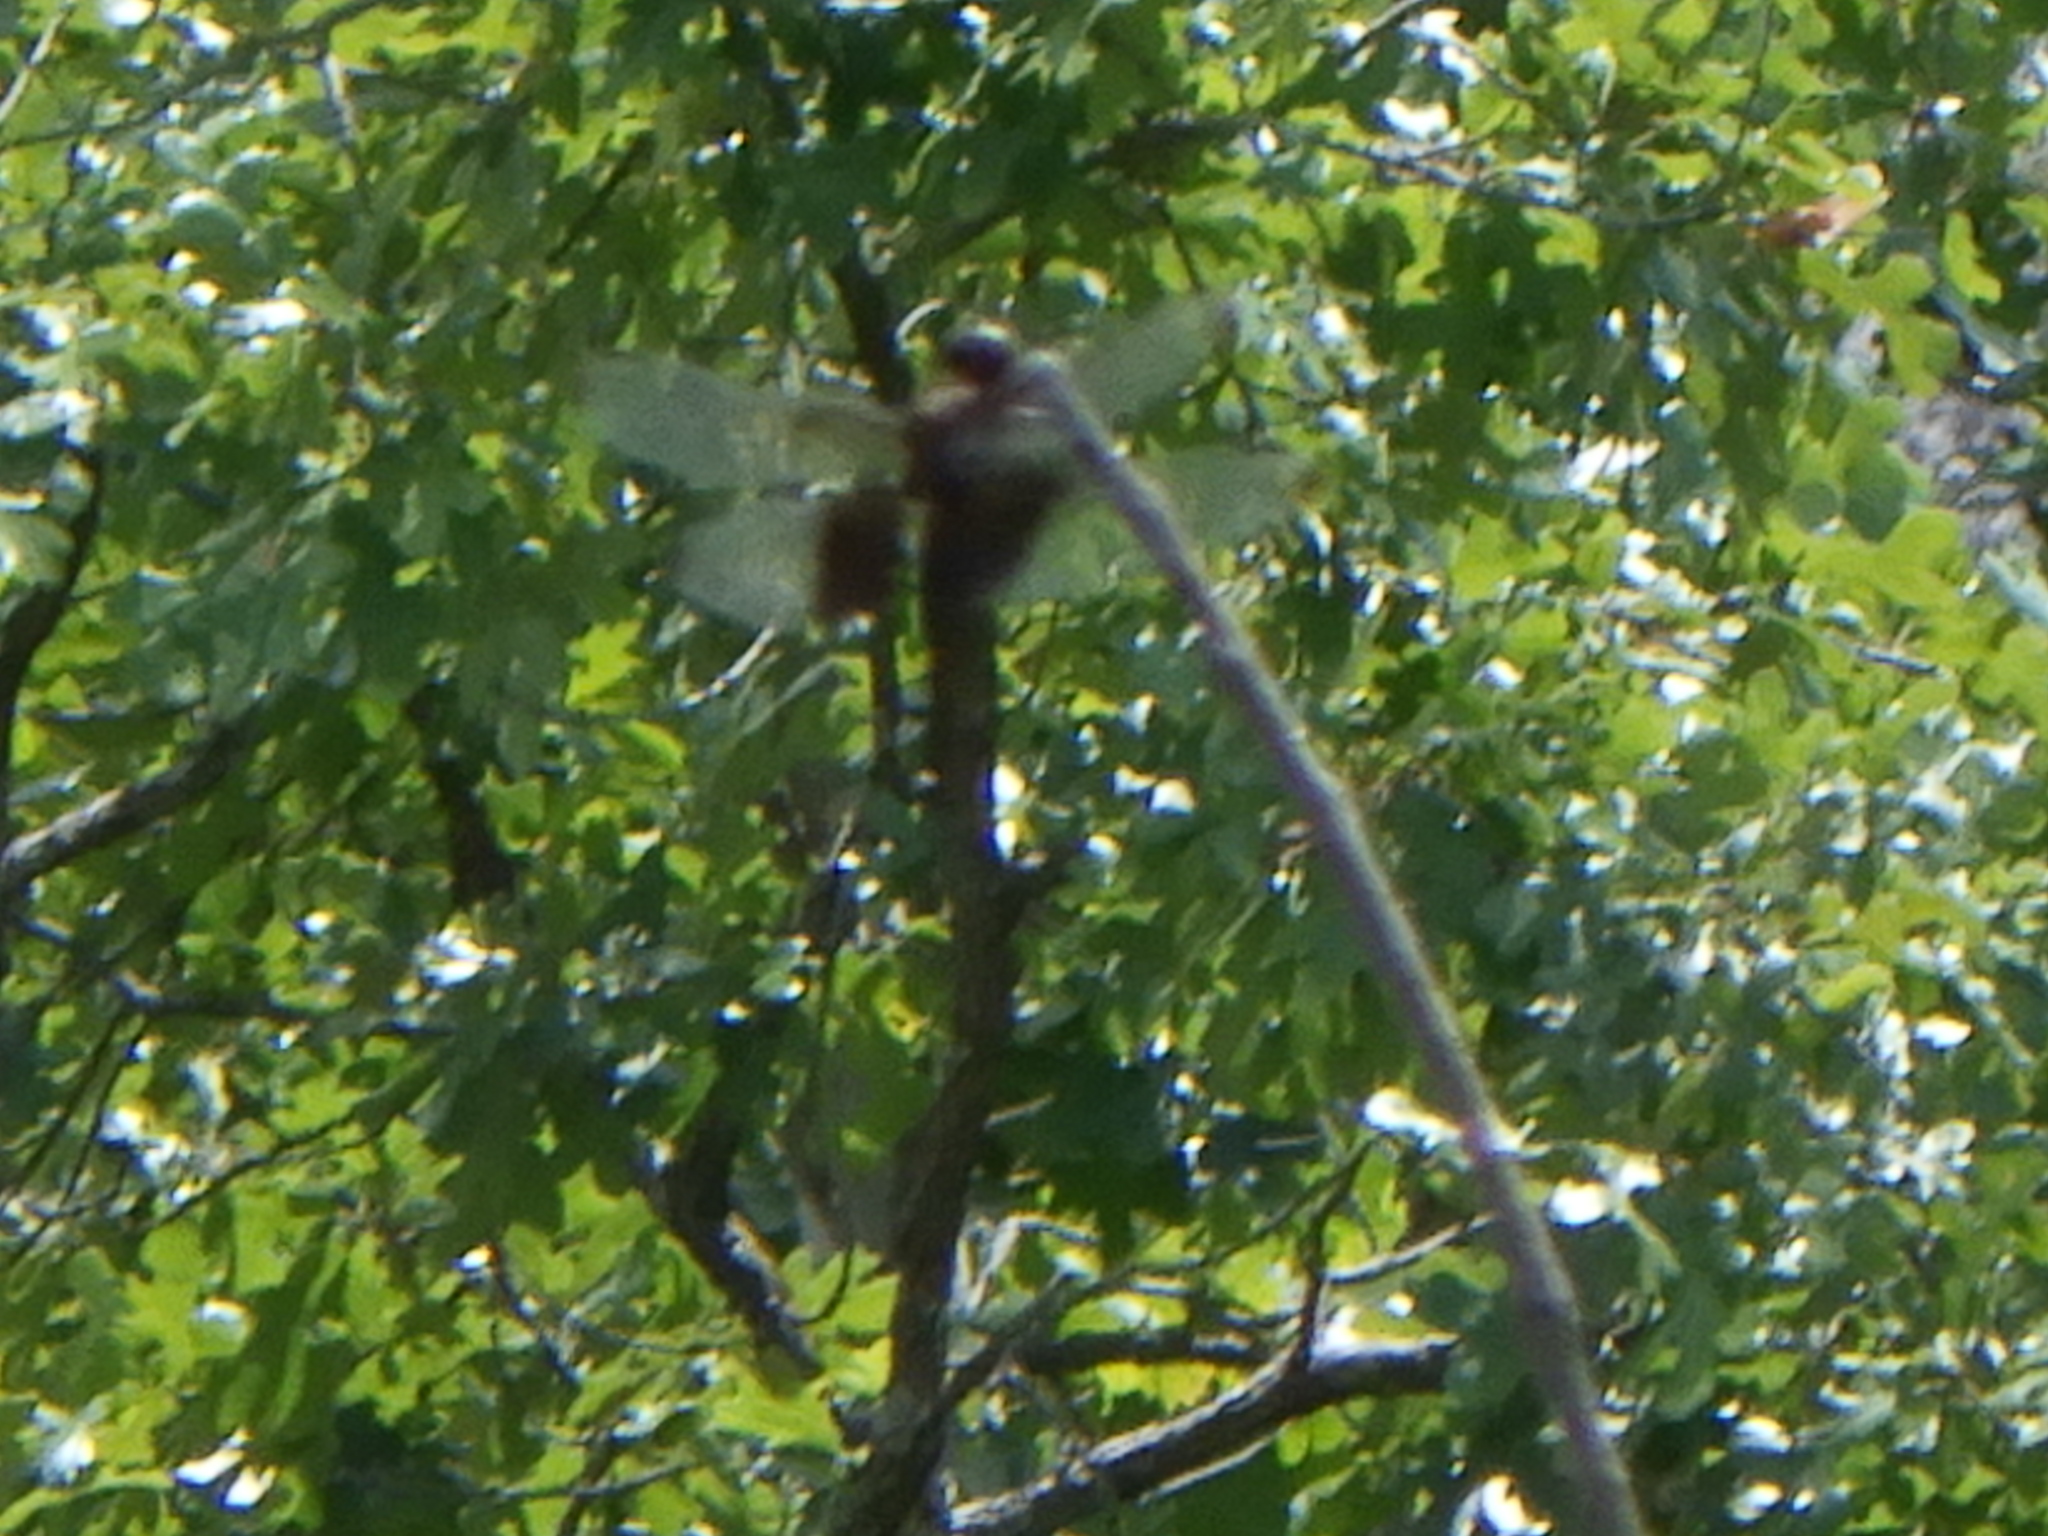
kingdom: Animalia
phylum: Arthropoda
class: Insecta
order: Odonata
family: Libellulidae
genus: Libellula
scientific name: Libellula luctuosa
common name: Widow skimmer
